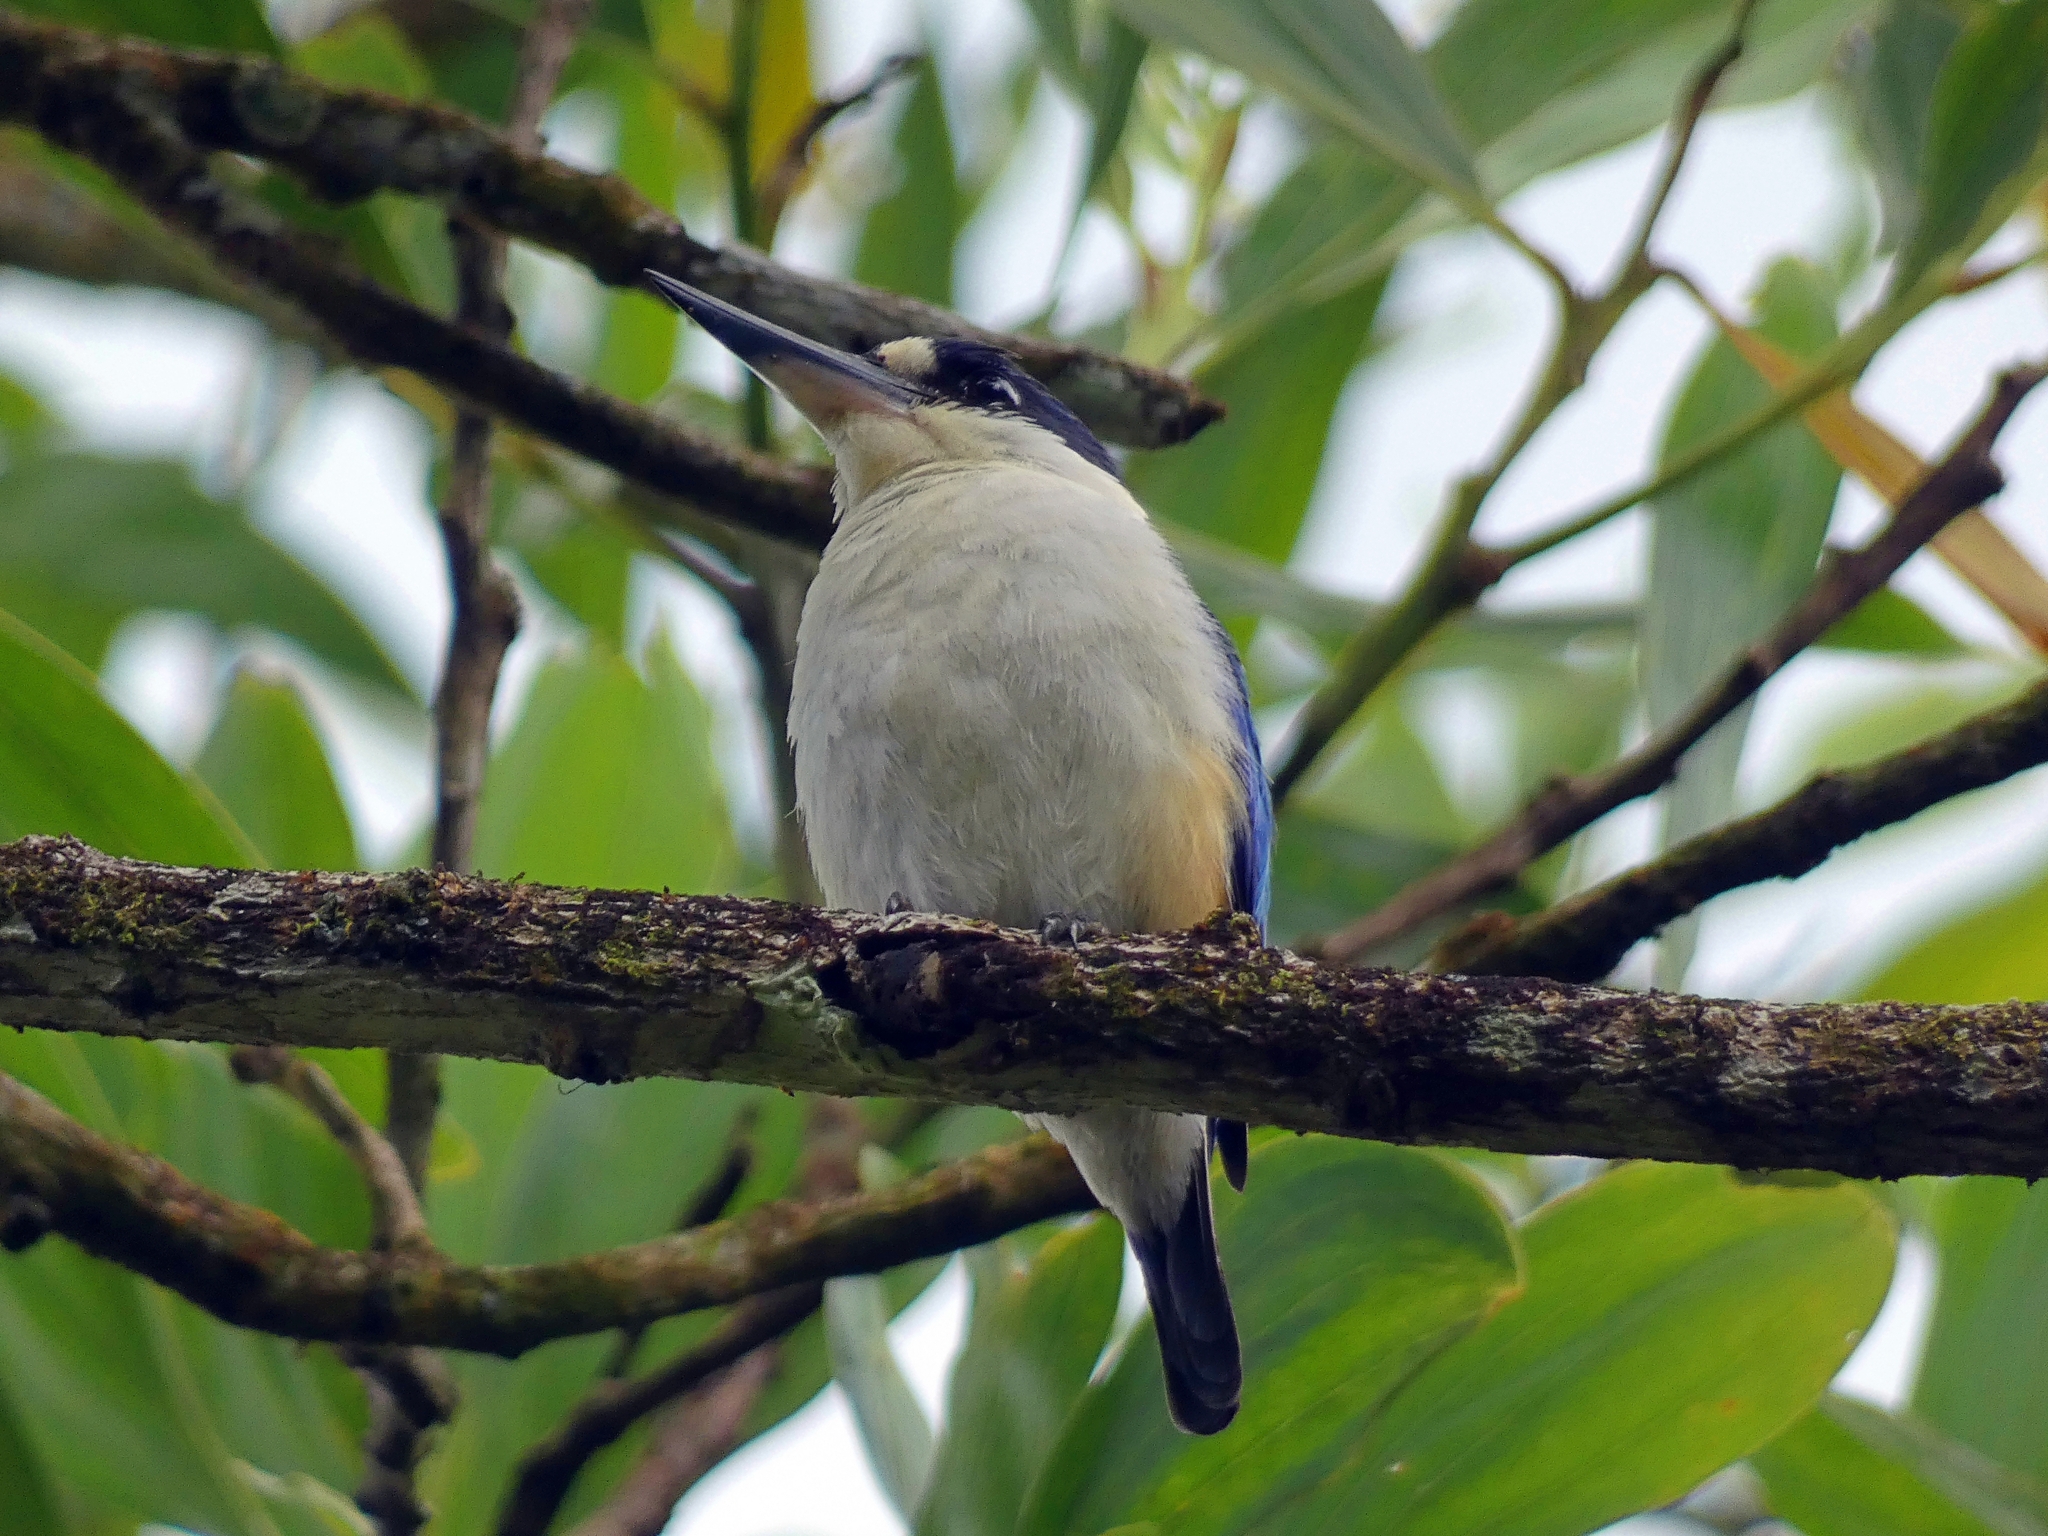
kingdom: Animalia
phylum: Chordata
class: Aves
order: Coraciiformes
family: Alcedinidae
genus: Todiramphus
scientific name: Todiramphus macleayii
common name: Forest kingfisher
